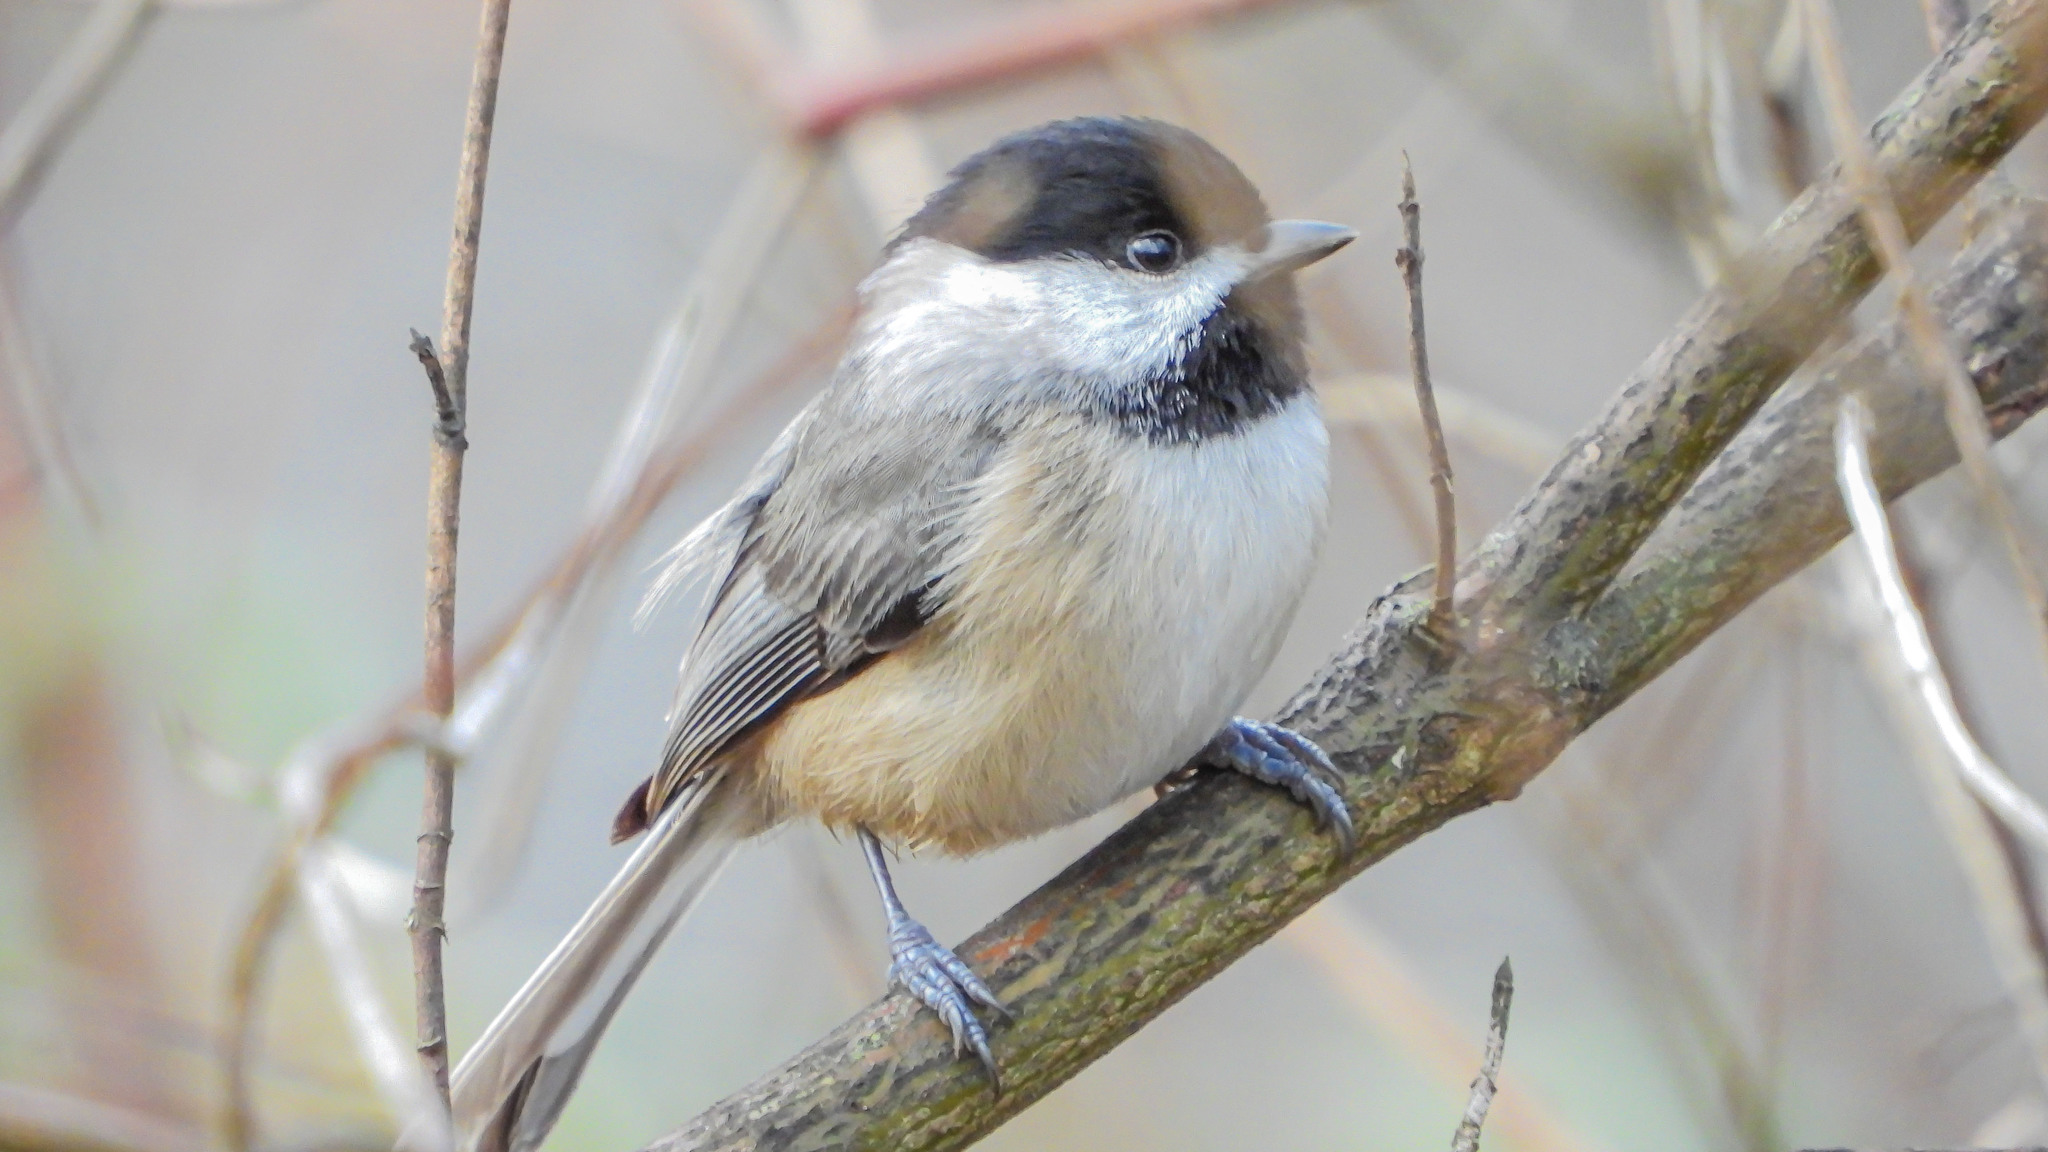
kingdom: Animalia
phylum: Chordata
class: Aves
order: Passeriformes
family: Paridae
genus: Poecile
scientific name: Poecile carolinensis
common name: Carolina chickadee
